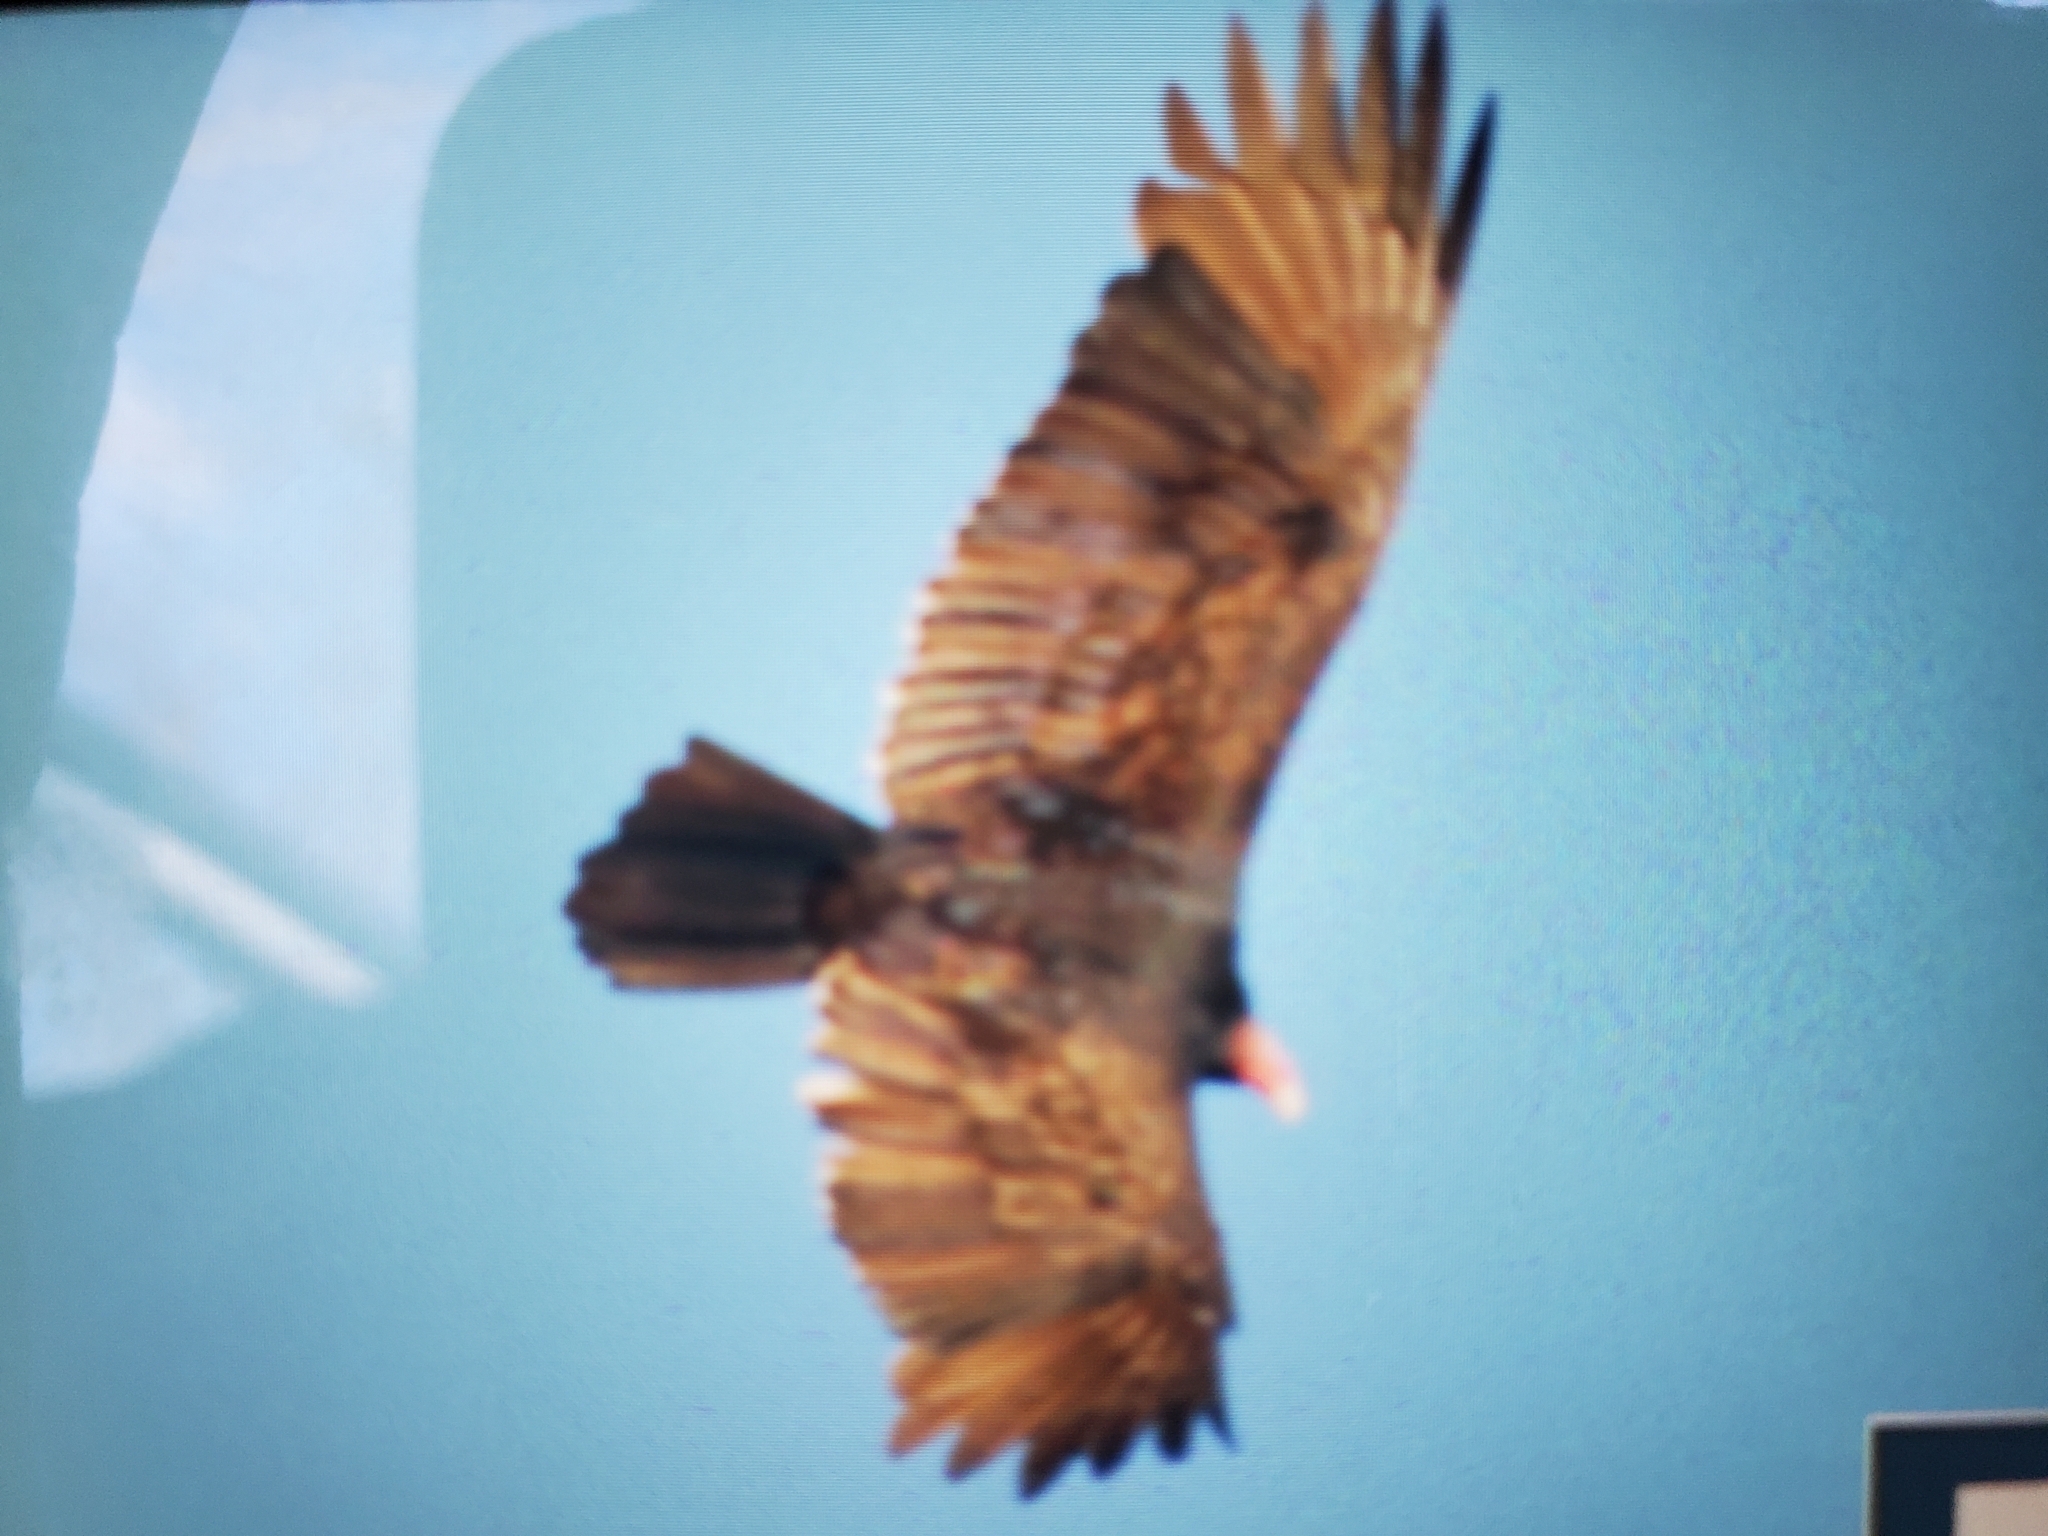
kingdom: Animalia
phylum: Chordata
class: Aves
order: Accipitriformes
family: Cathartidae
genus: Cathartes
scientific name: Cathartes aura
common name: Turkey vulture
